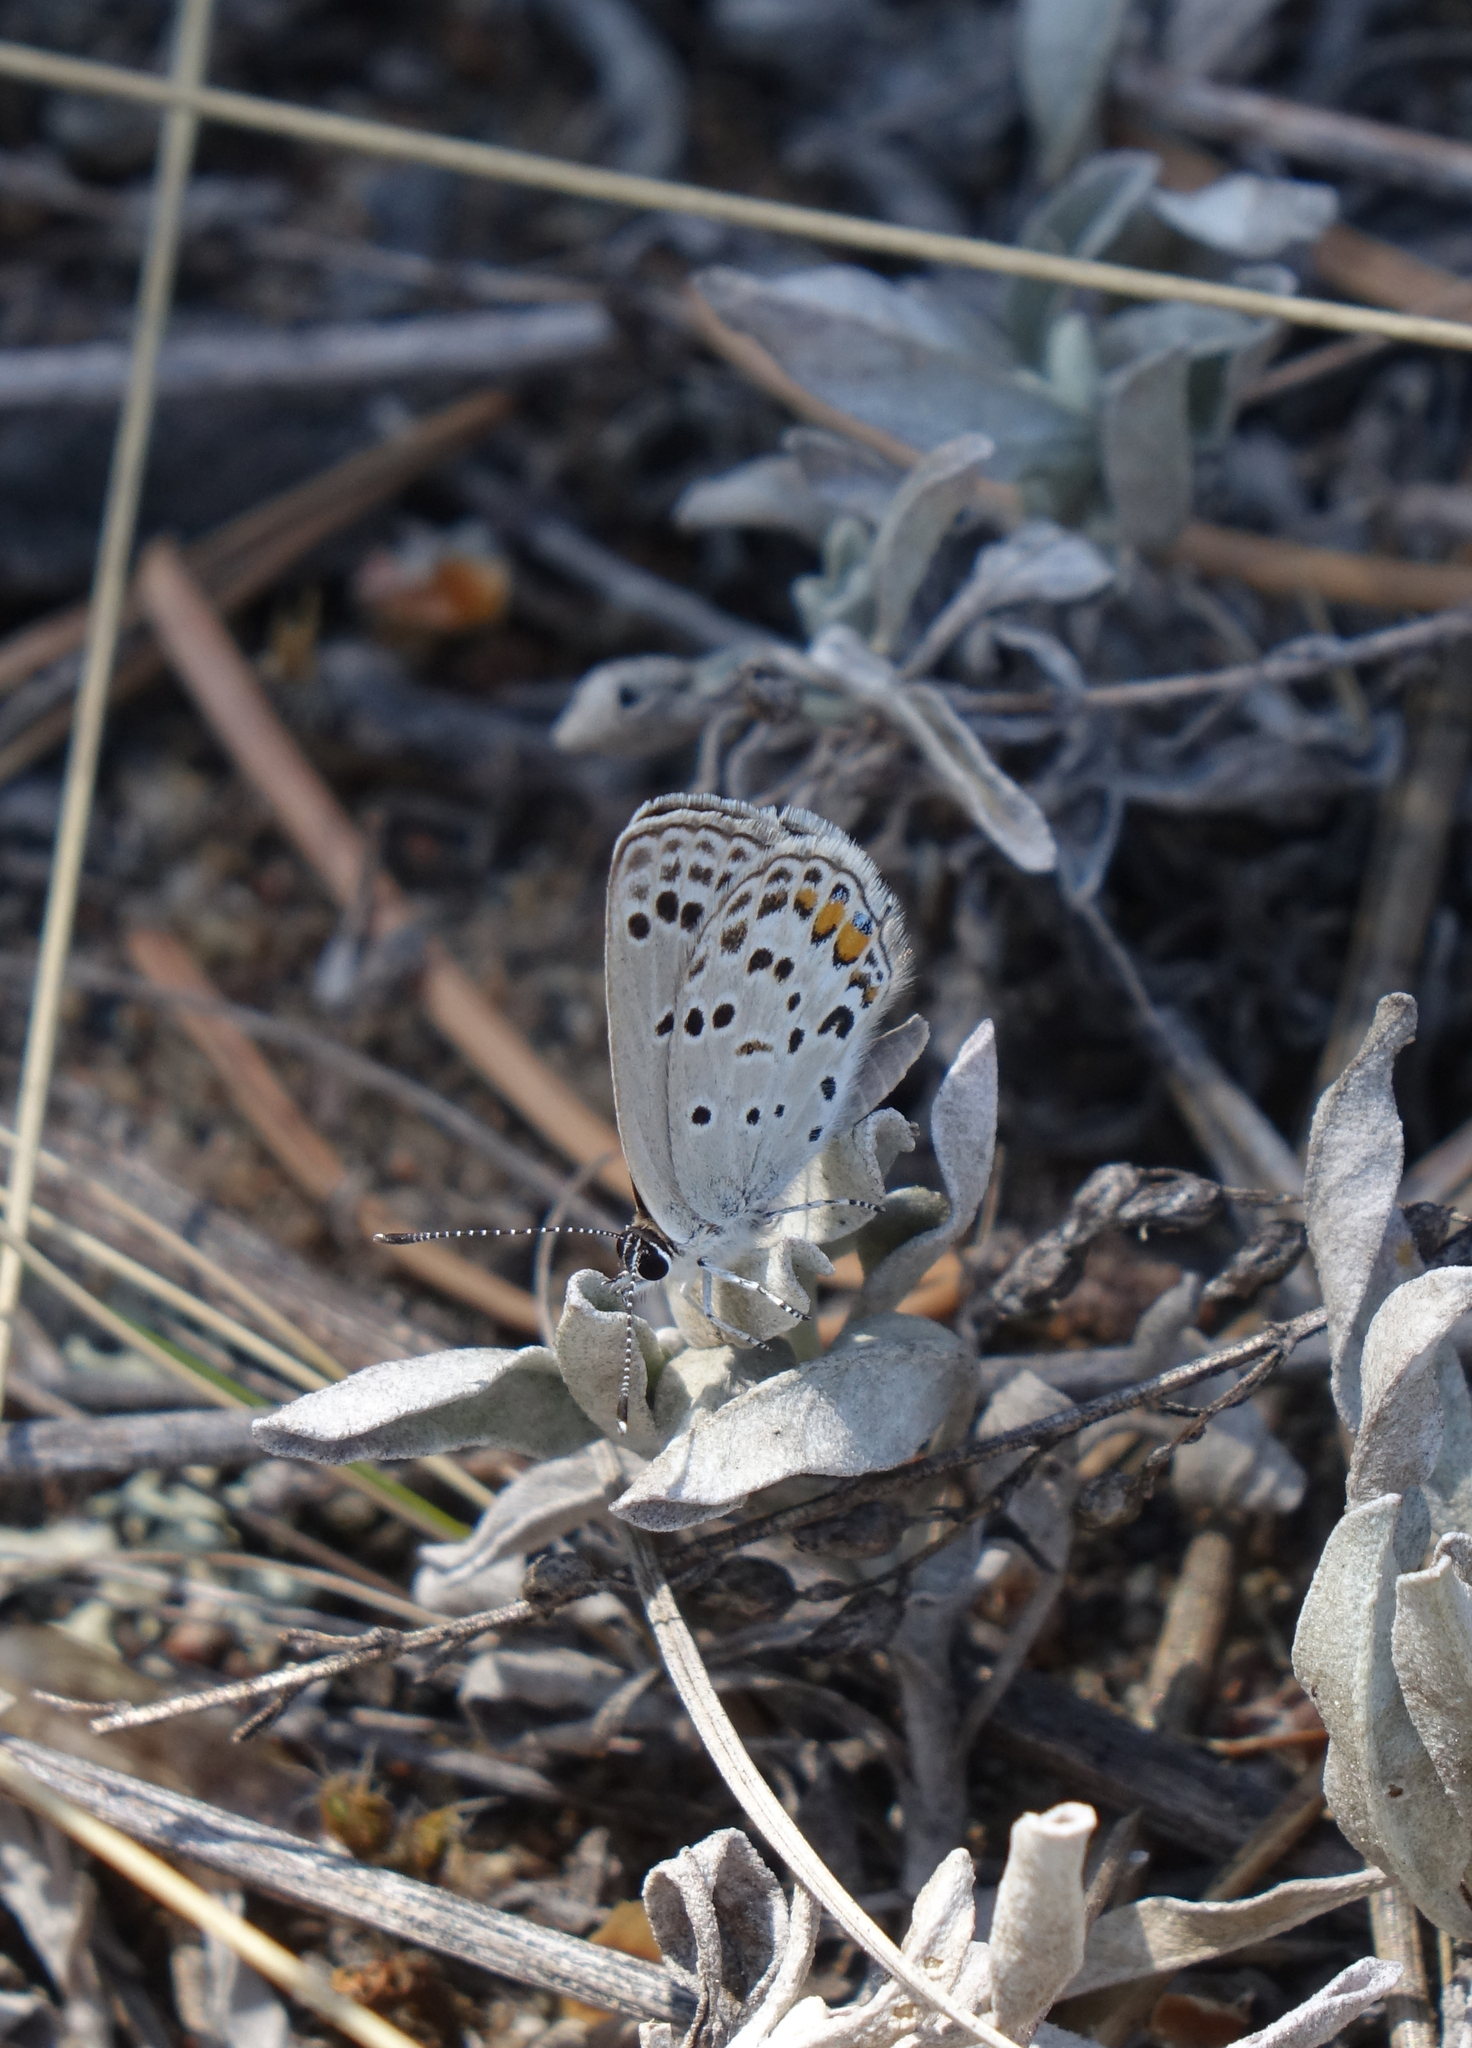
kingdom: Animalia
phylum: Arthropoda
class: Insecta
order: Lepidoptera
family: Lycaenidae
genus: Tongeia
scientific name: Tongeia fischeri
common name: Fischer's blue
